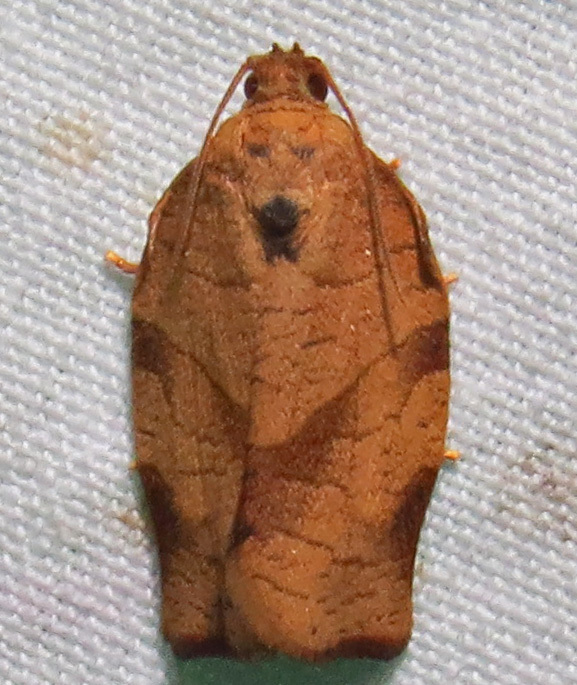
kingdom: Animalia
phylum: Arthropoda
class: Insecta
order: Lepidoptera
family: Tortricidae
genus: Choristoneura
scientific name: Choristoneura rosaceana
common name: Oblique-banded leafroller moth
